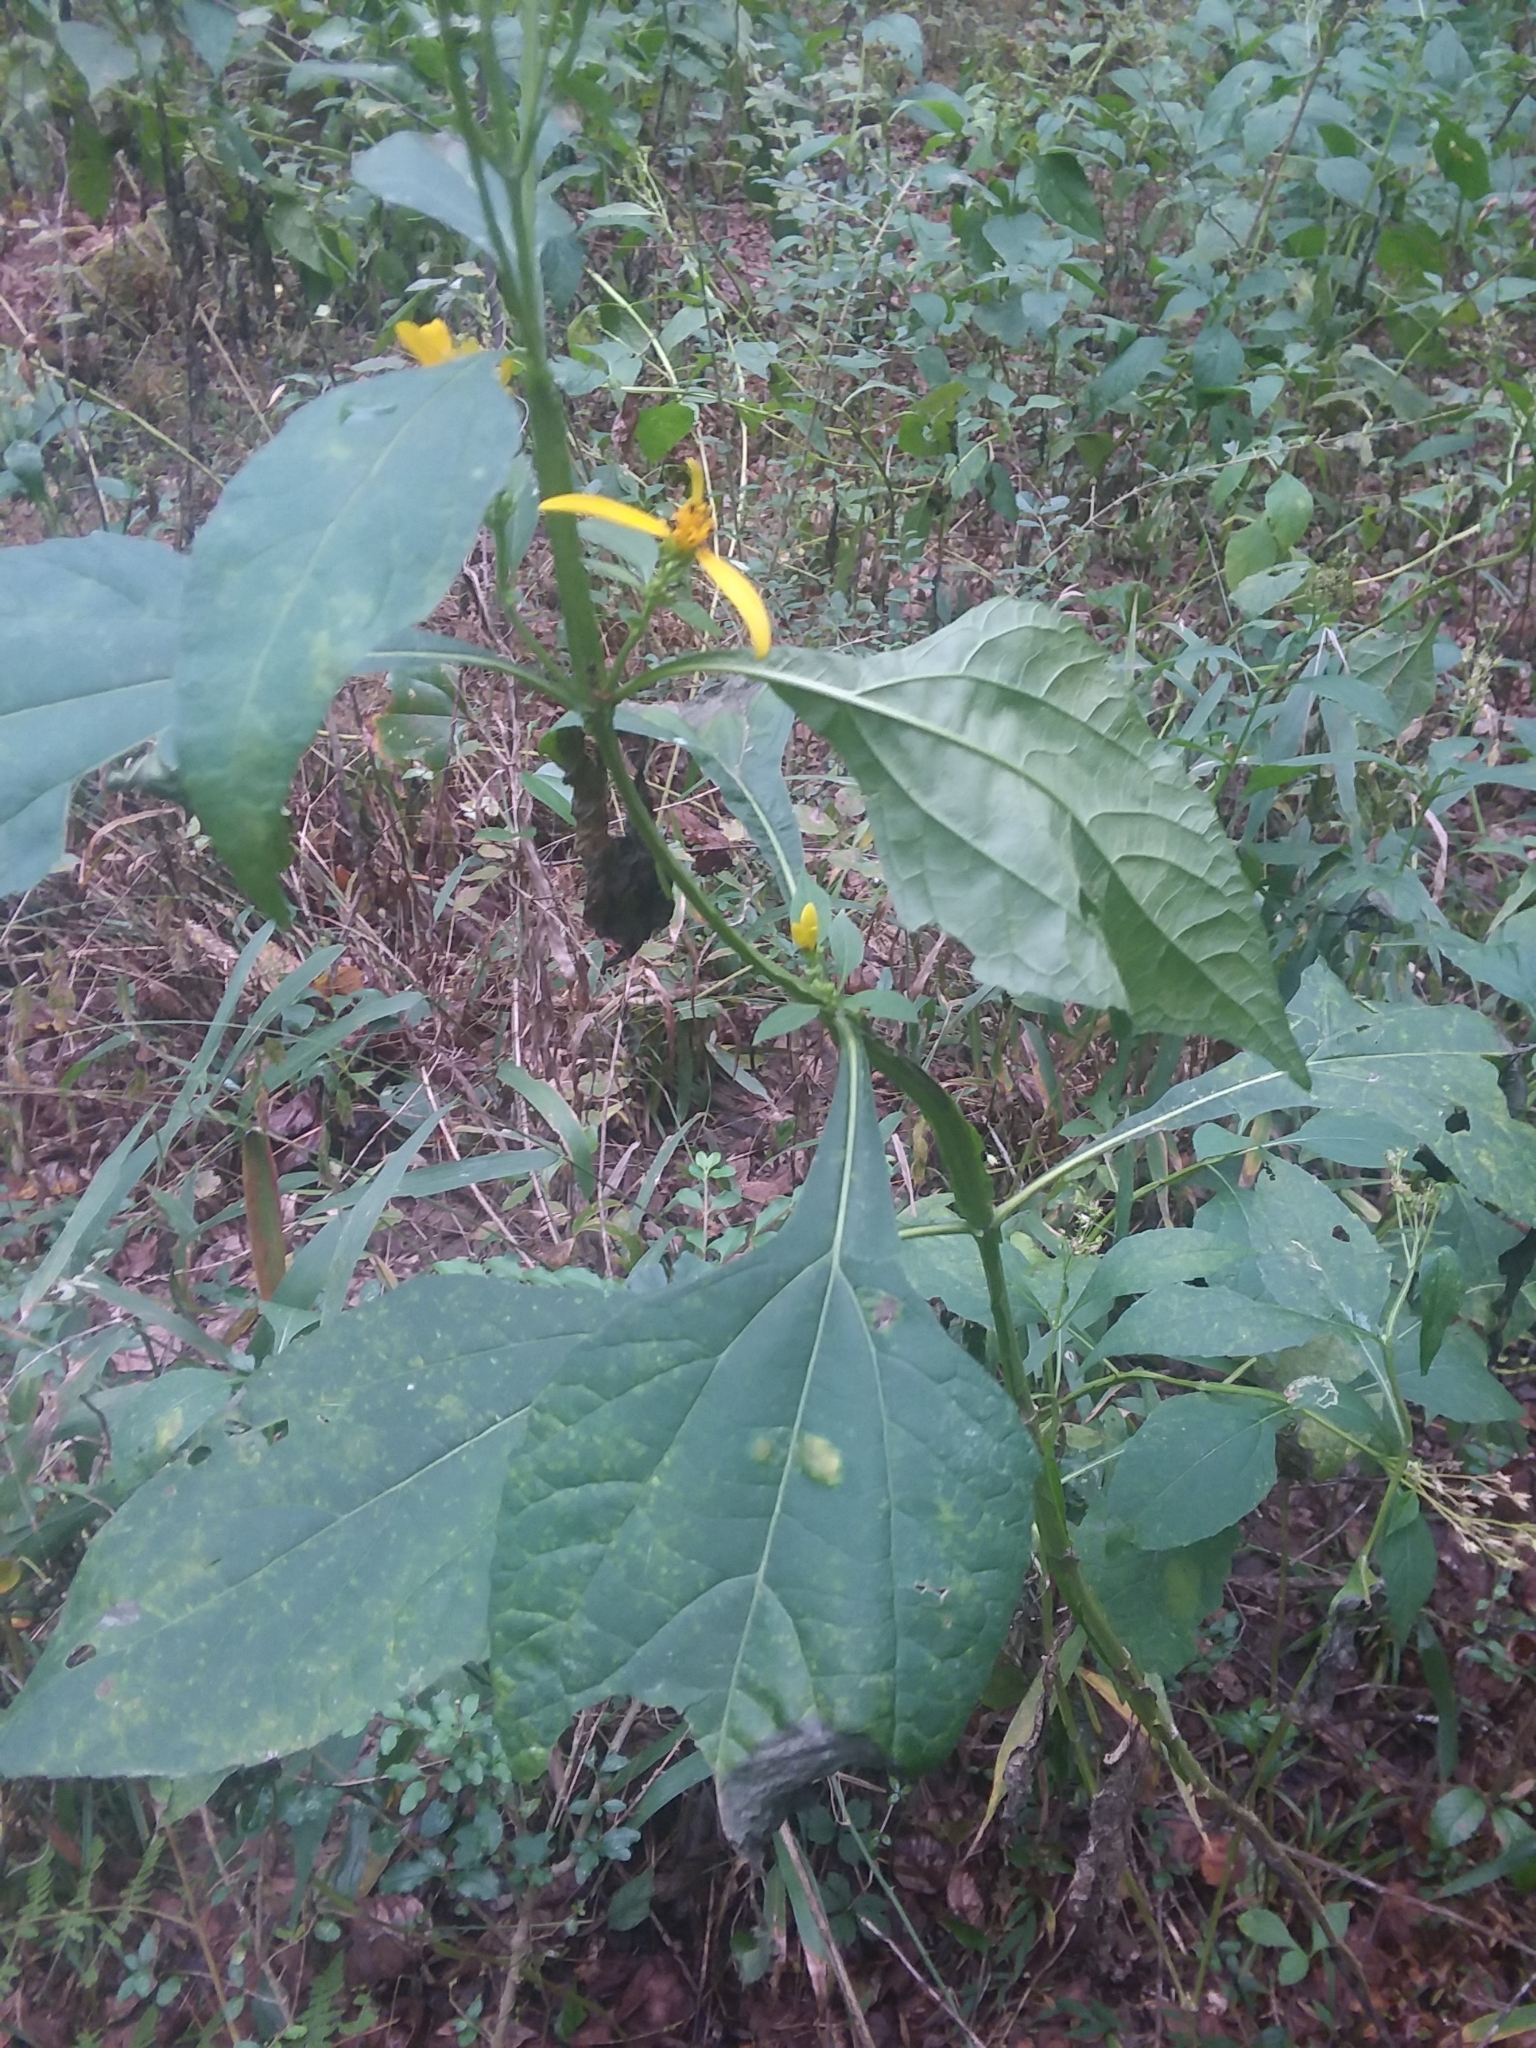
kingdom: Plantae
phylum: Tracheophyta
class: Magnoliopsida
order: Asterales
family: Asteraceae
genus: Verbesina
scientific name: Verbesina occidentalis
